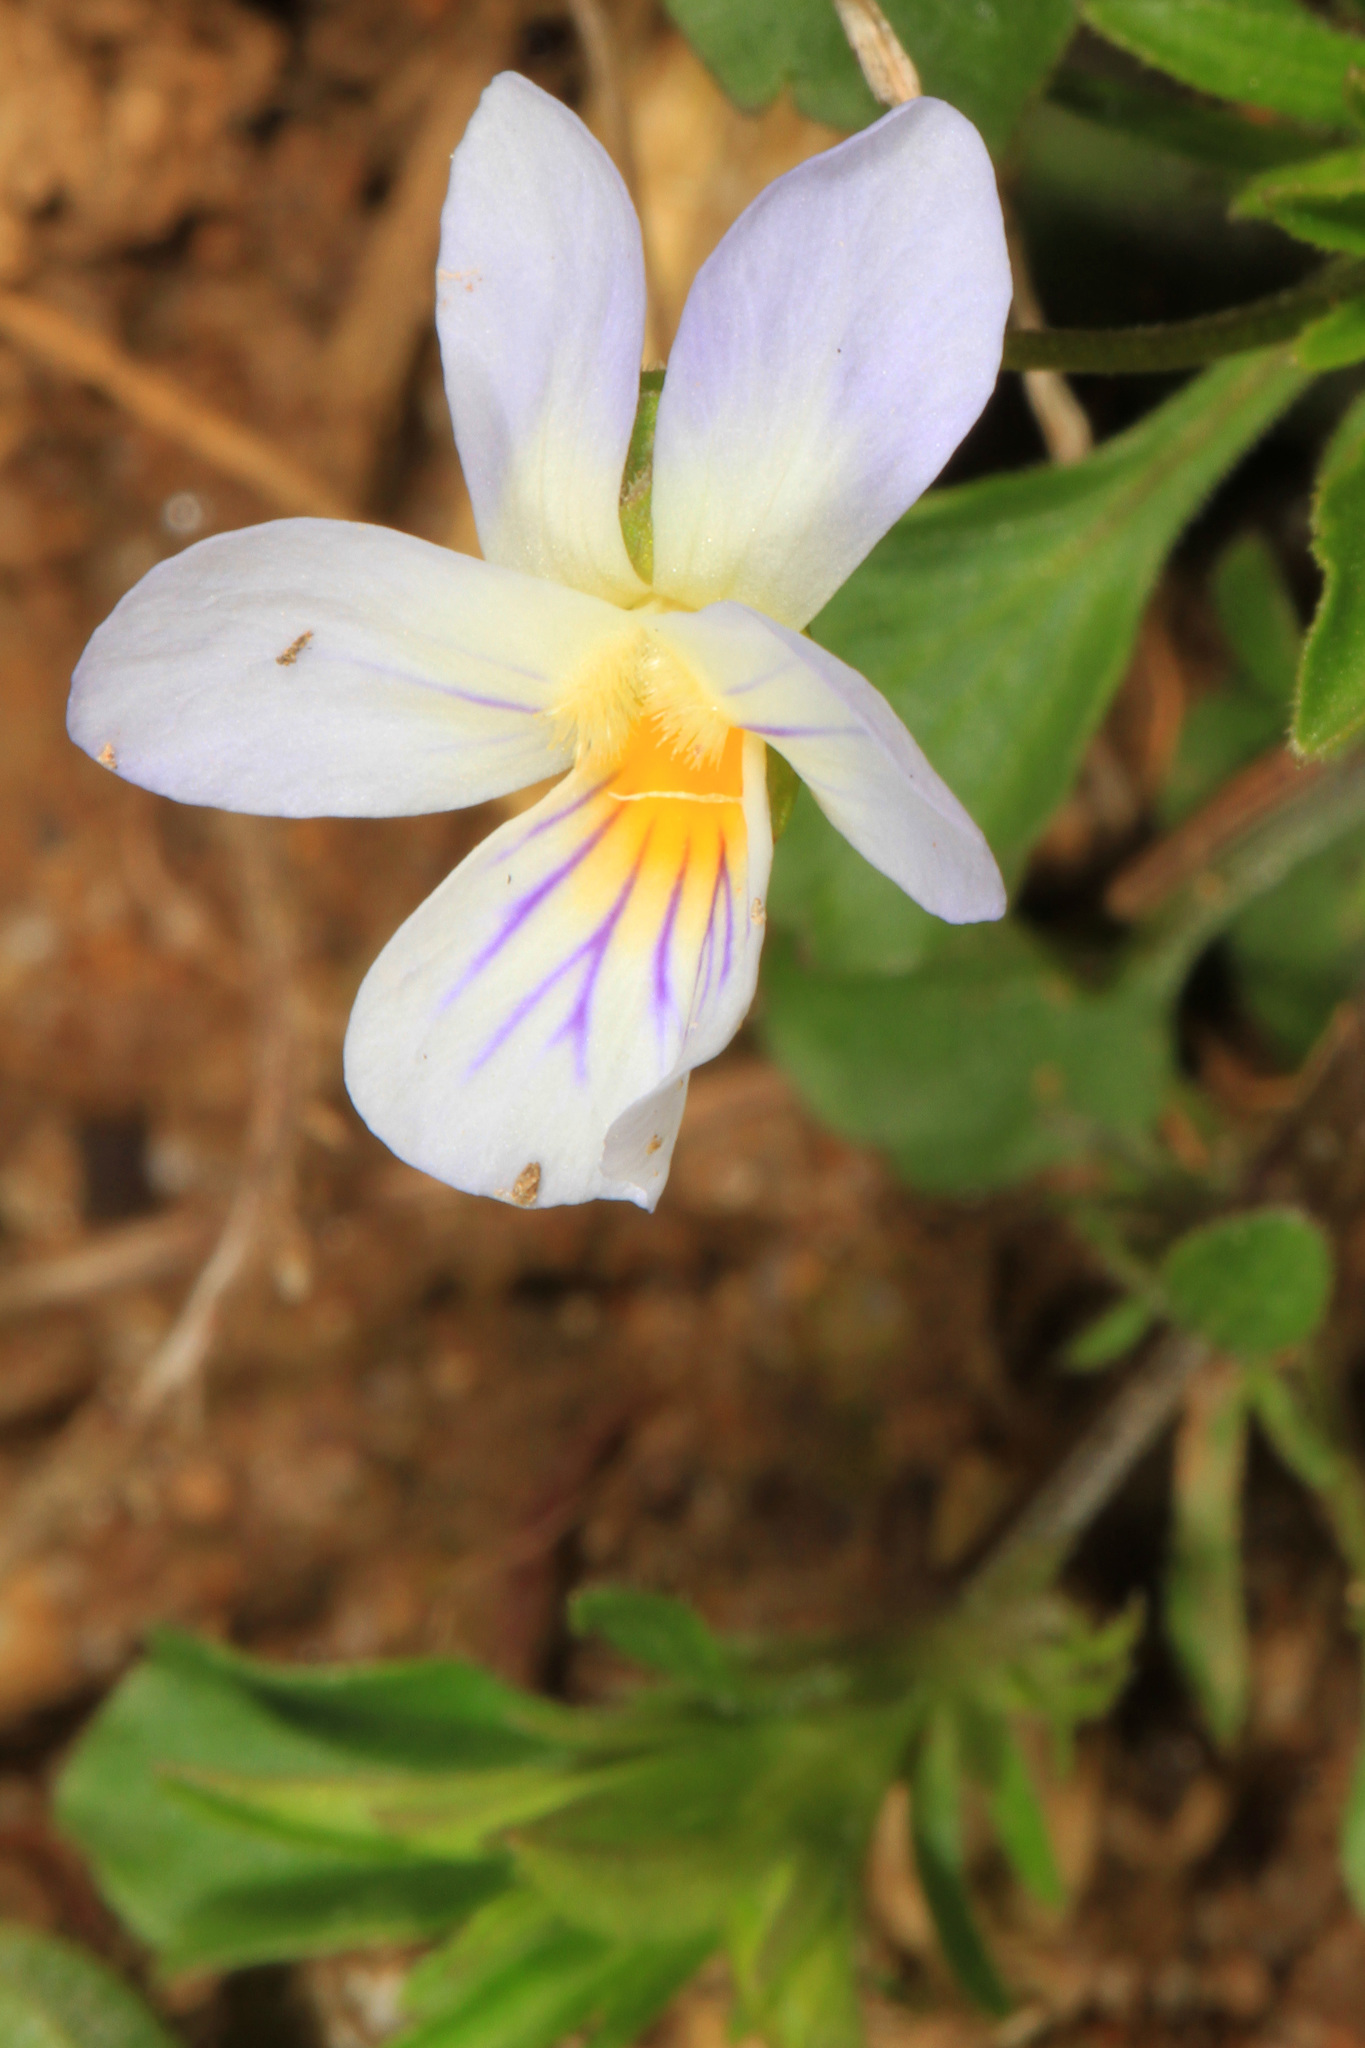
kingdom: Plantae
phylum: Tracheophyta
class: Magnoliopsida
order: Malpighiales
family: Violaceae
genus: Viola
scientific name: Viola rafinesquei
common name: American field pansy
